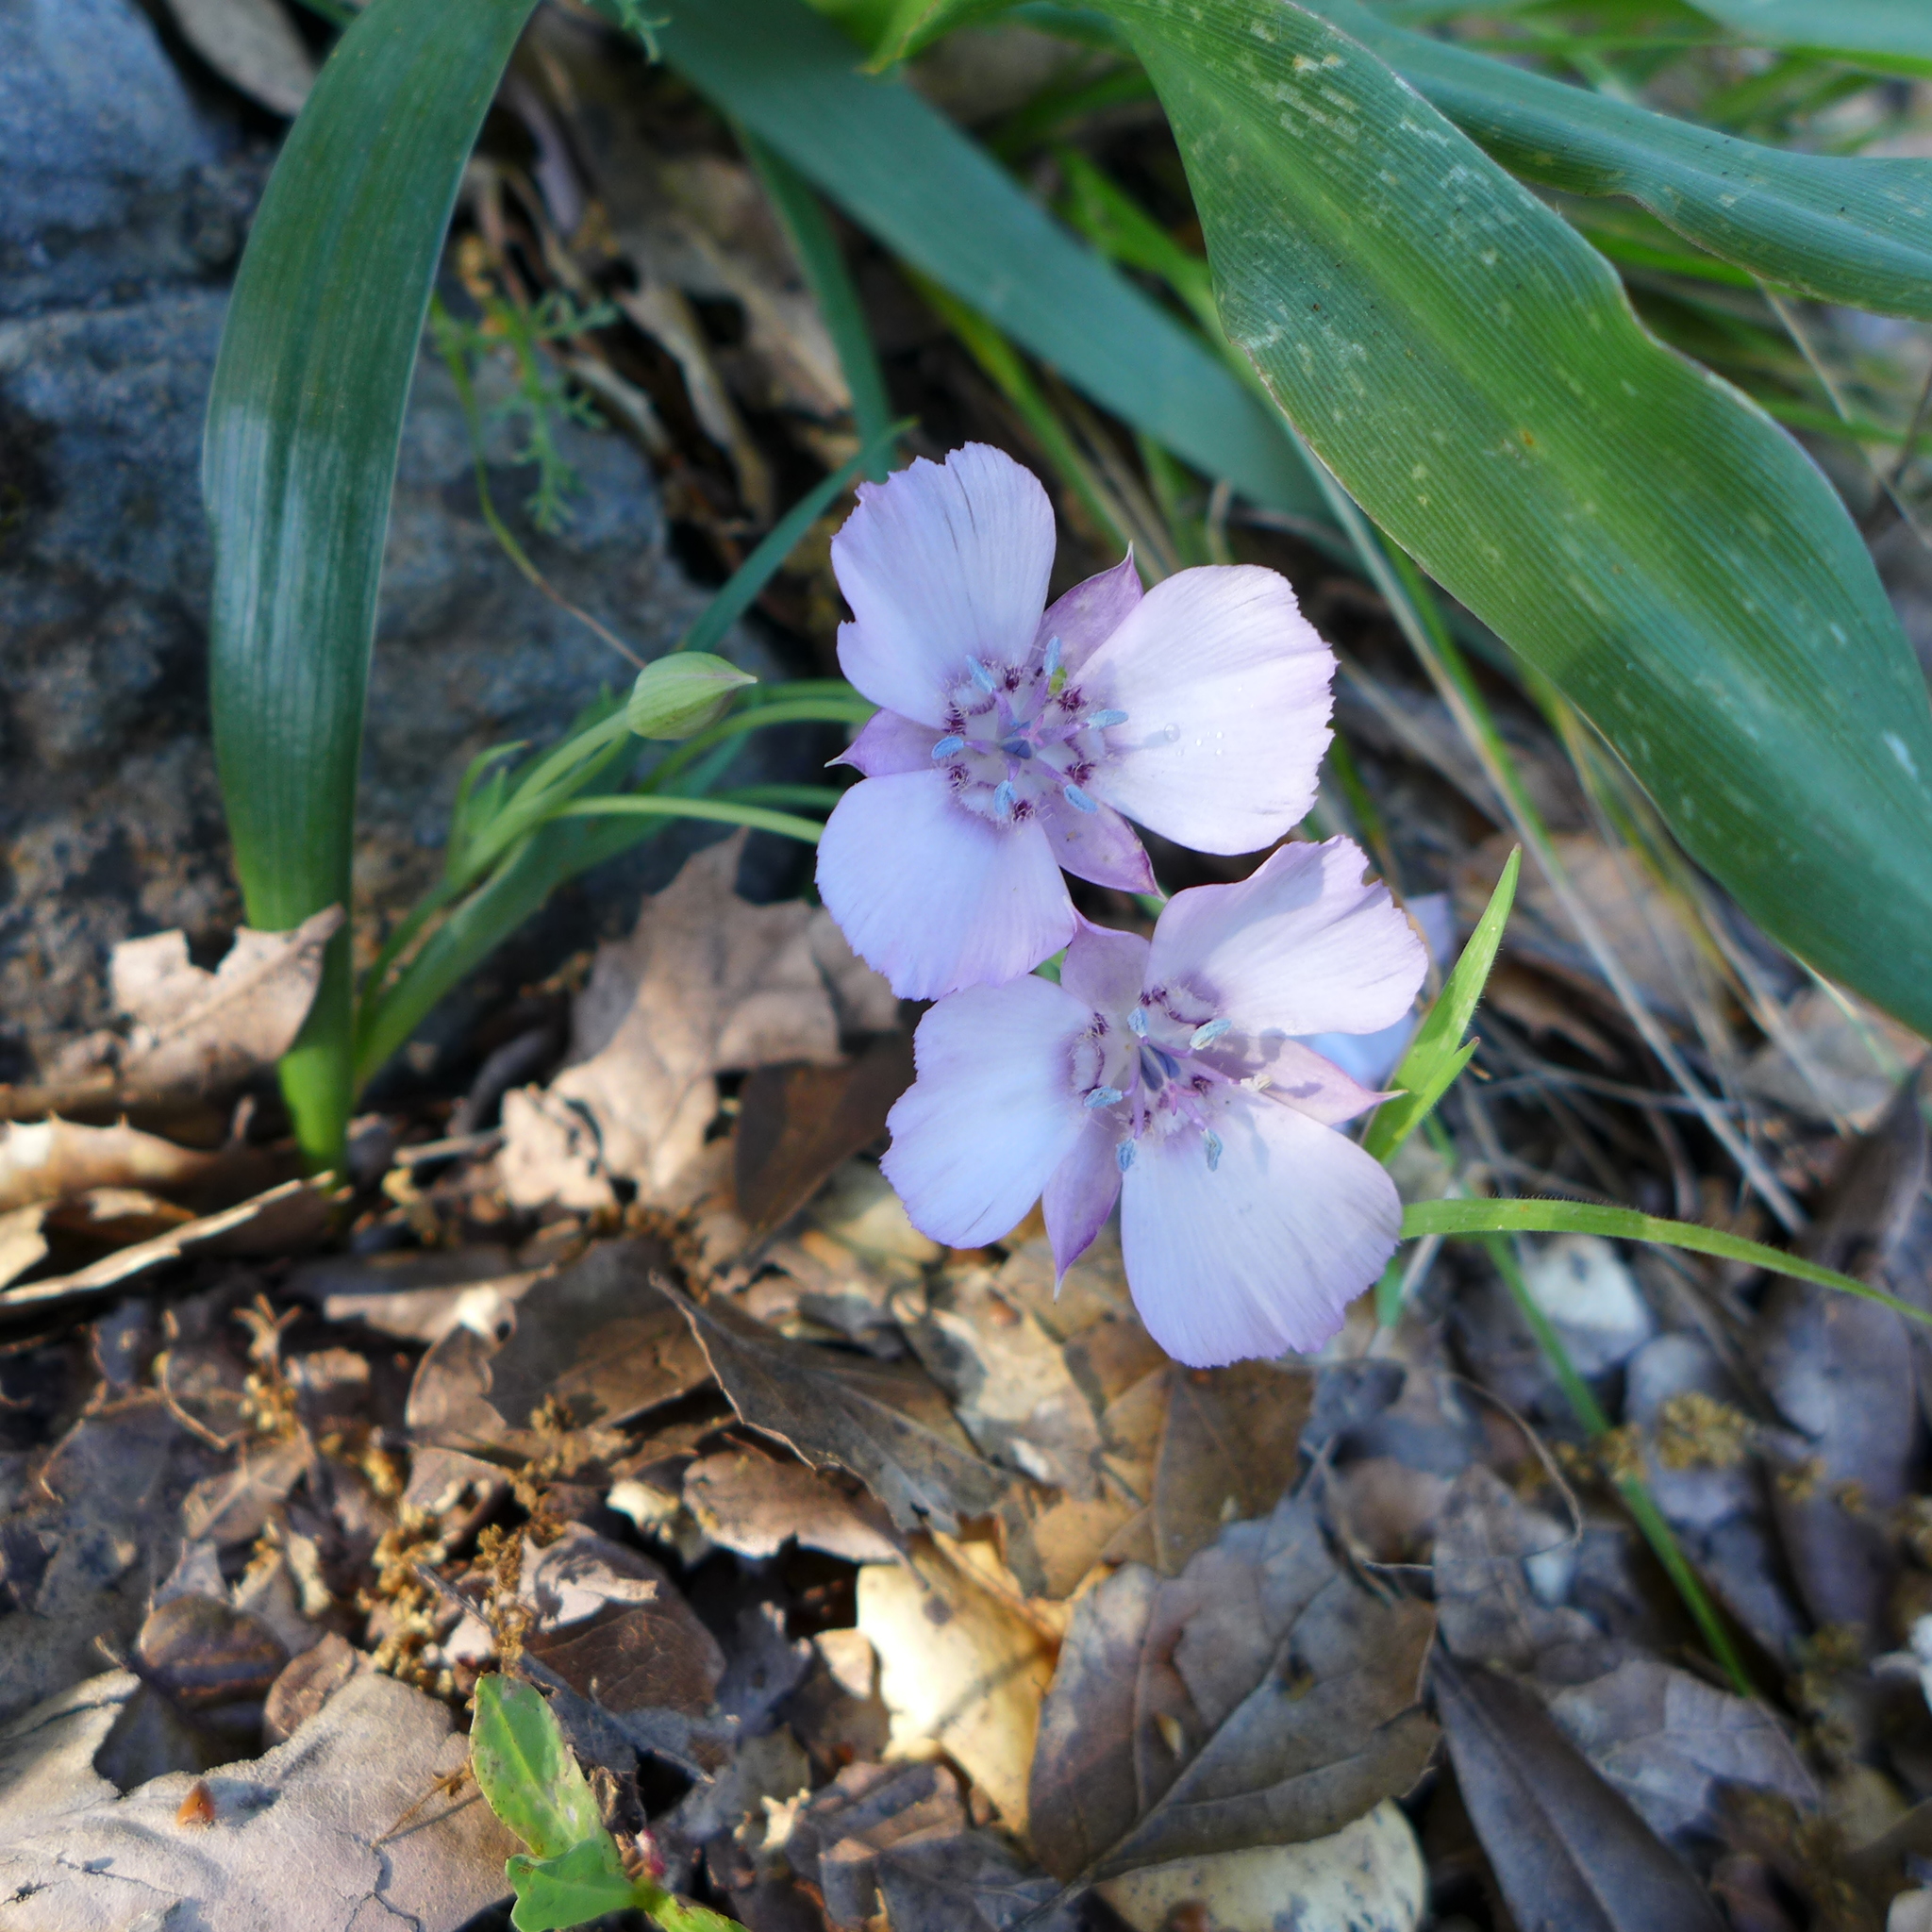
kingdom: Plantae
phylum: Tracheophyta
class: Liliopsida
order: Liliales
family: Liliaceae
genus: Calochortus
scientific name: Calochortus umbellatus
